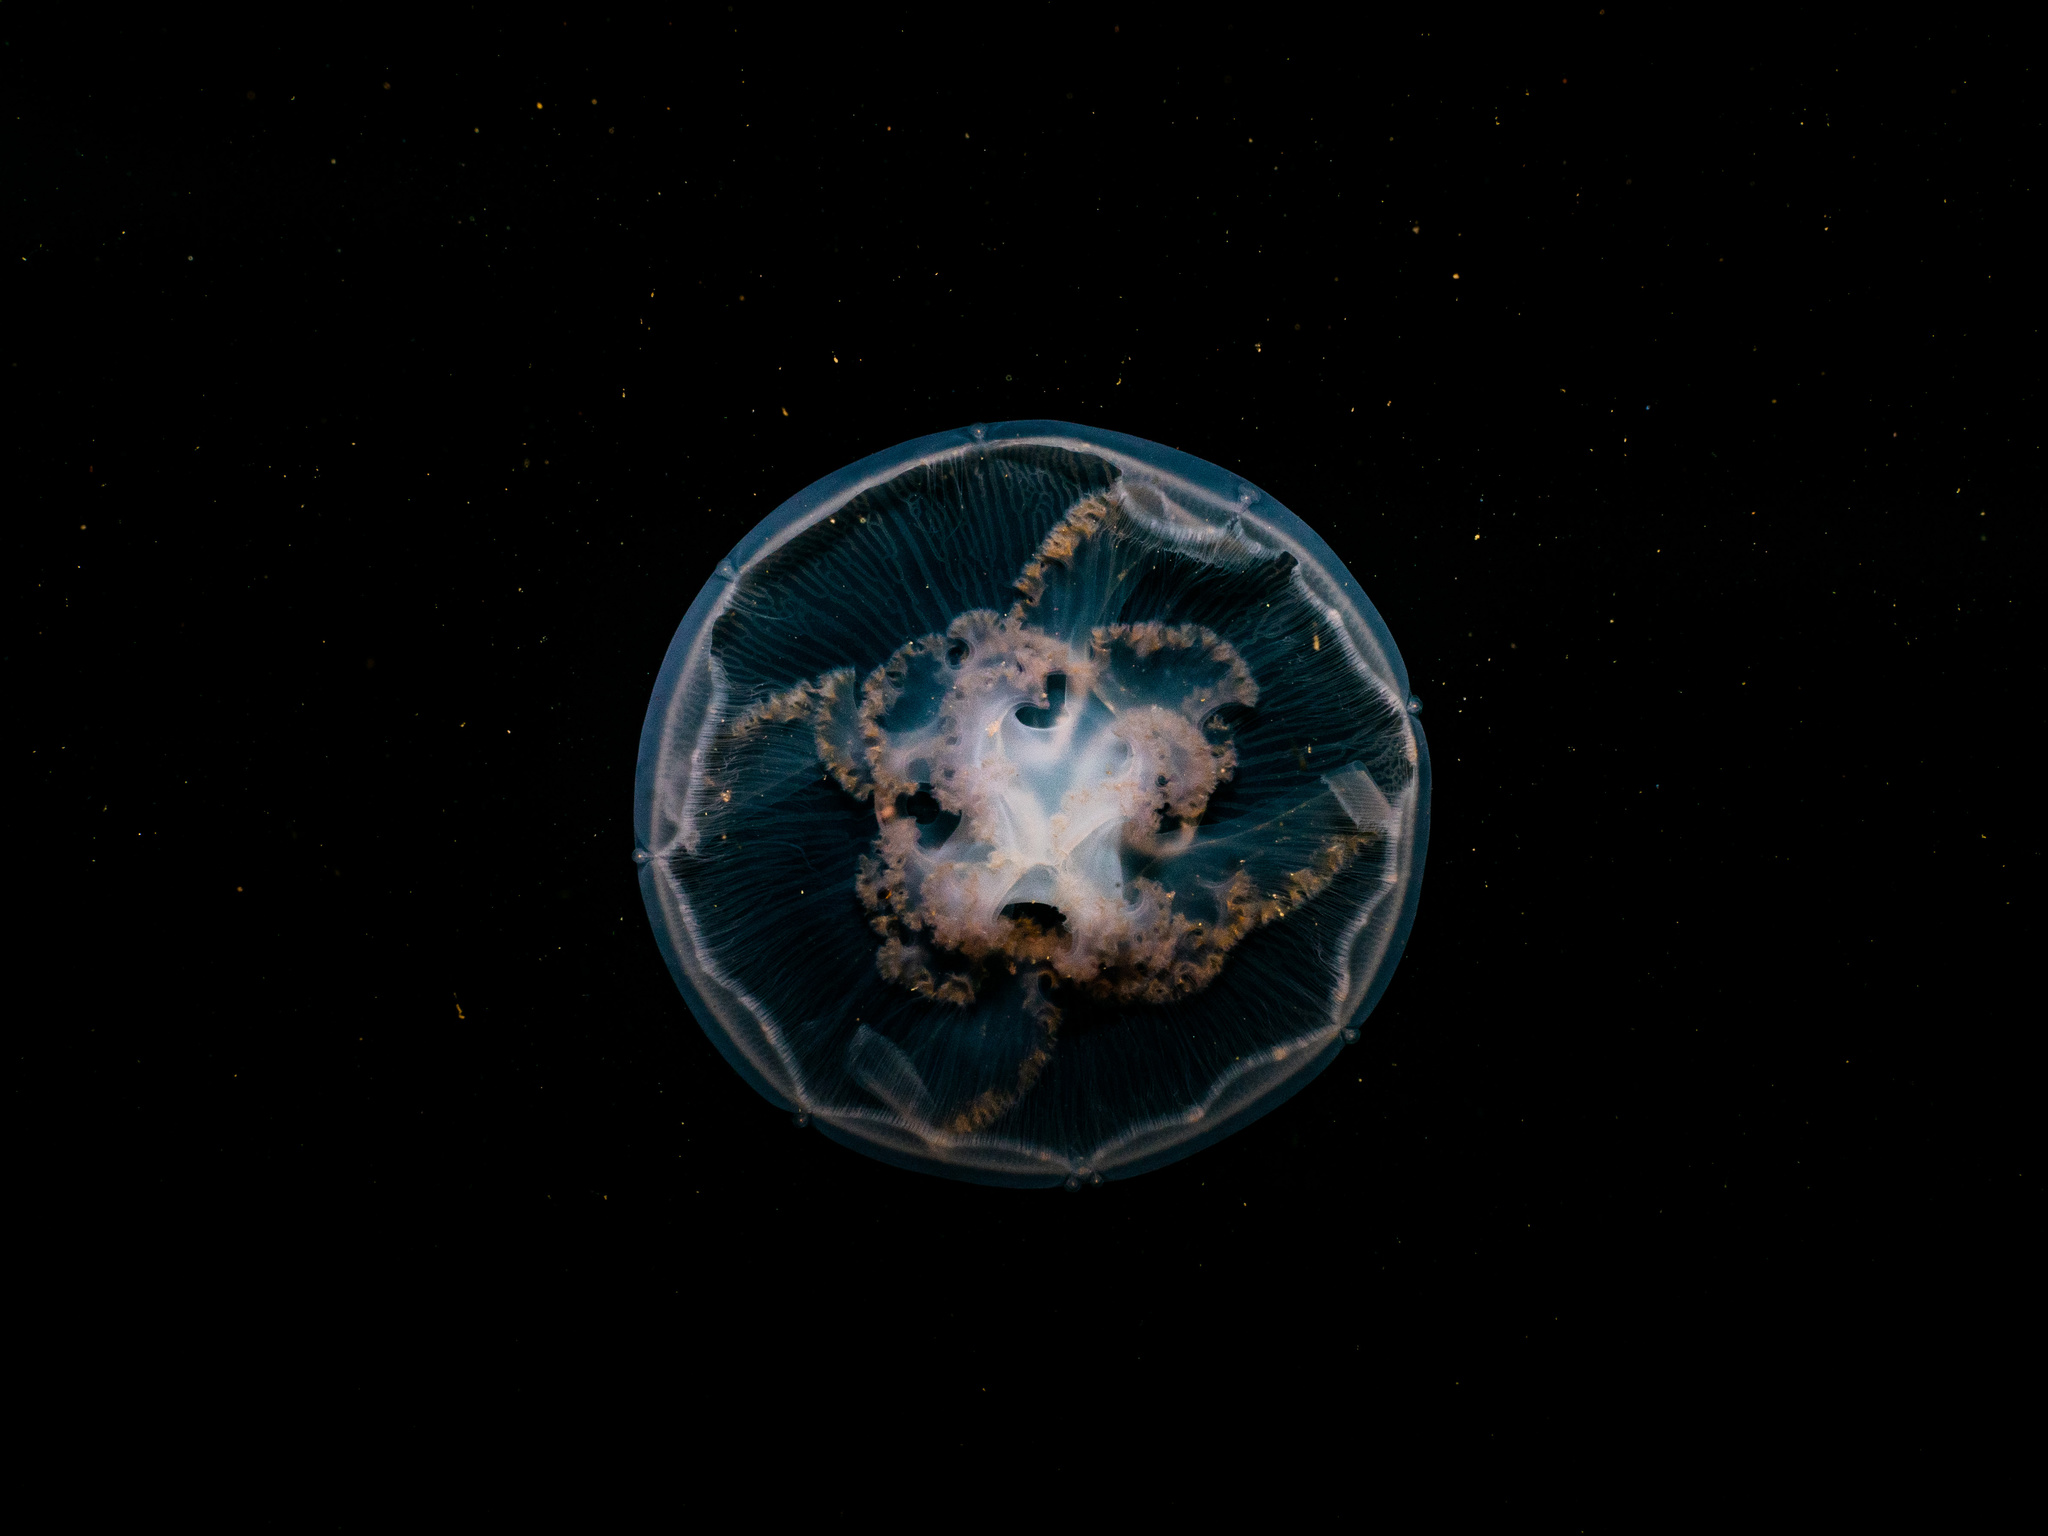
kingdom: Animalia
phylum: Cnidaria
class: Scyphozoa
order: Semaeostomeae
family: Ulmaridae
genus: Aurelia
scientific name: Aurelia labiata
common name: Pacific moon jelly
